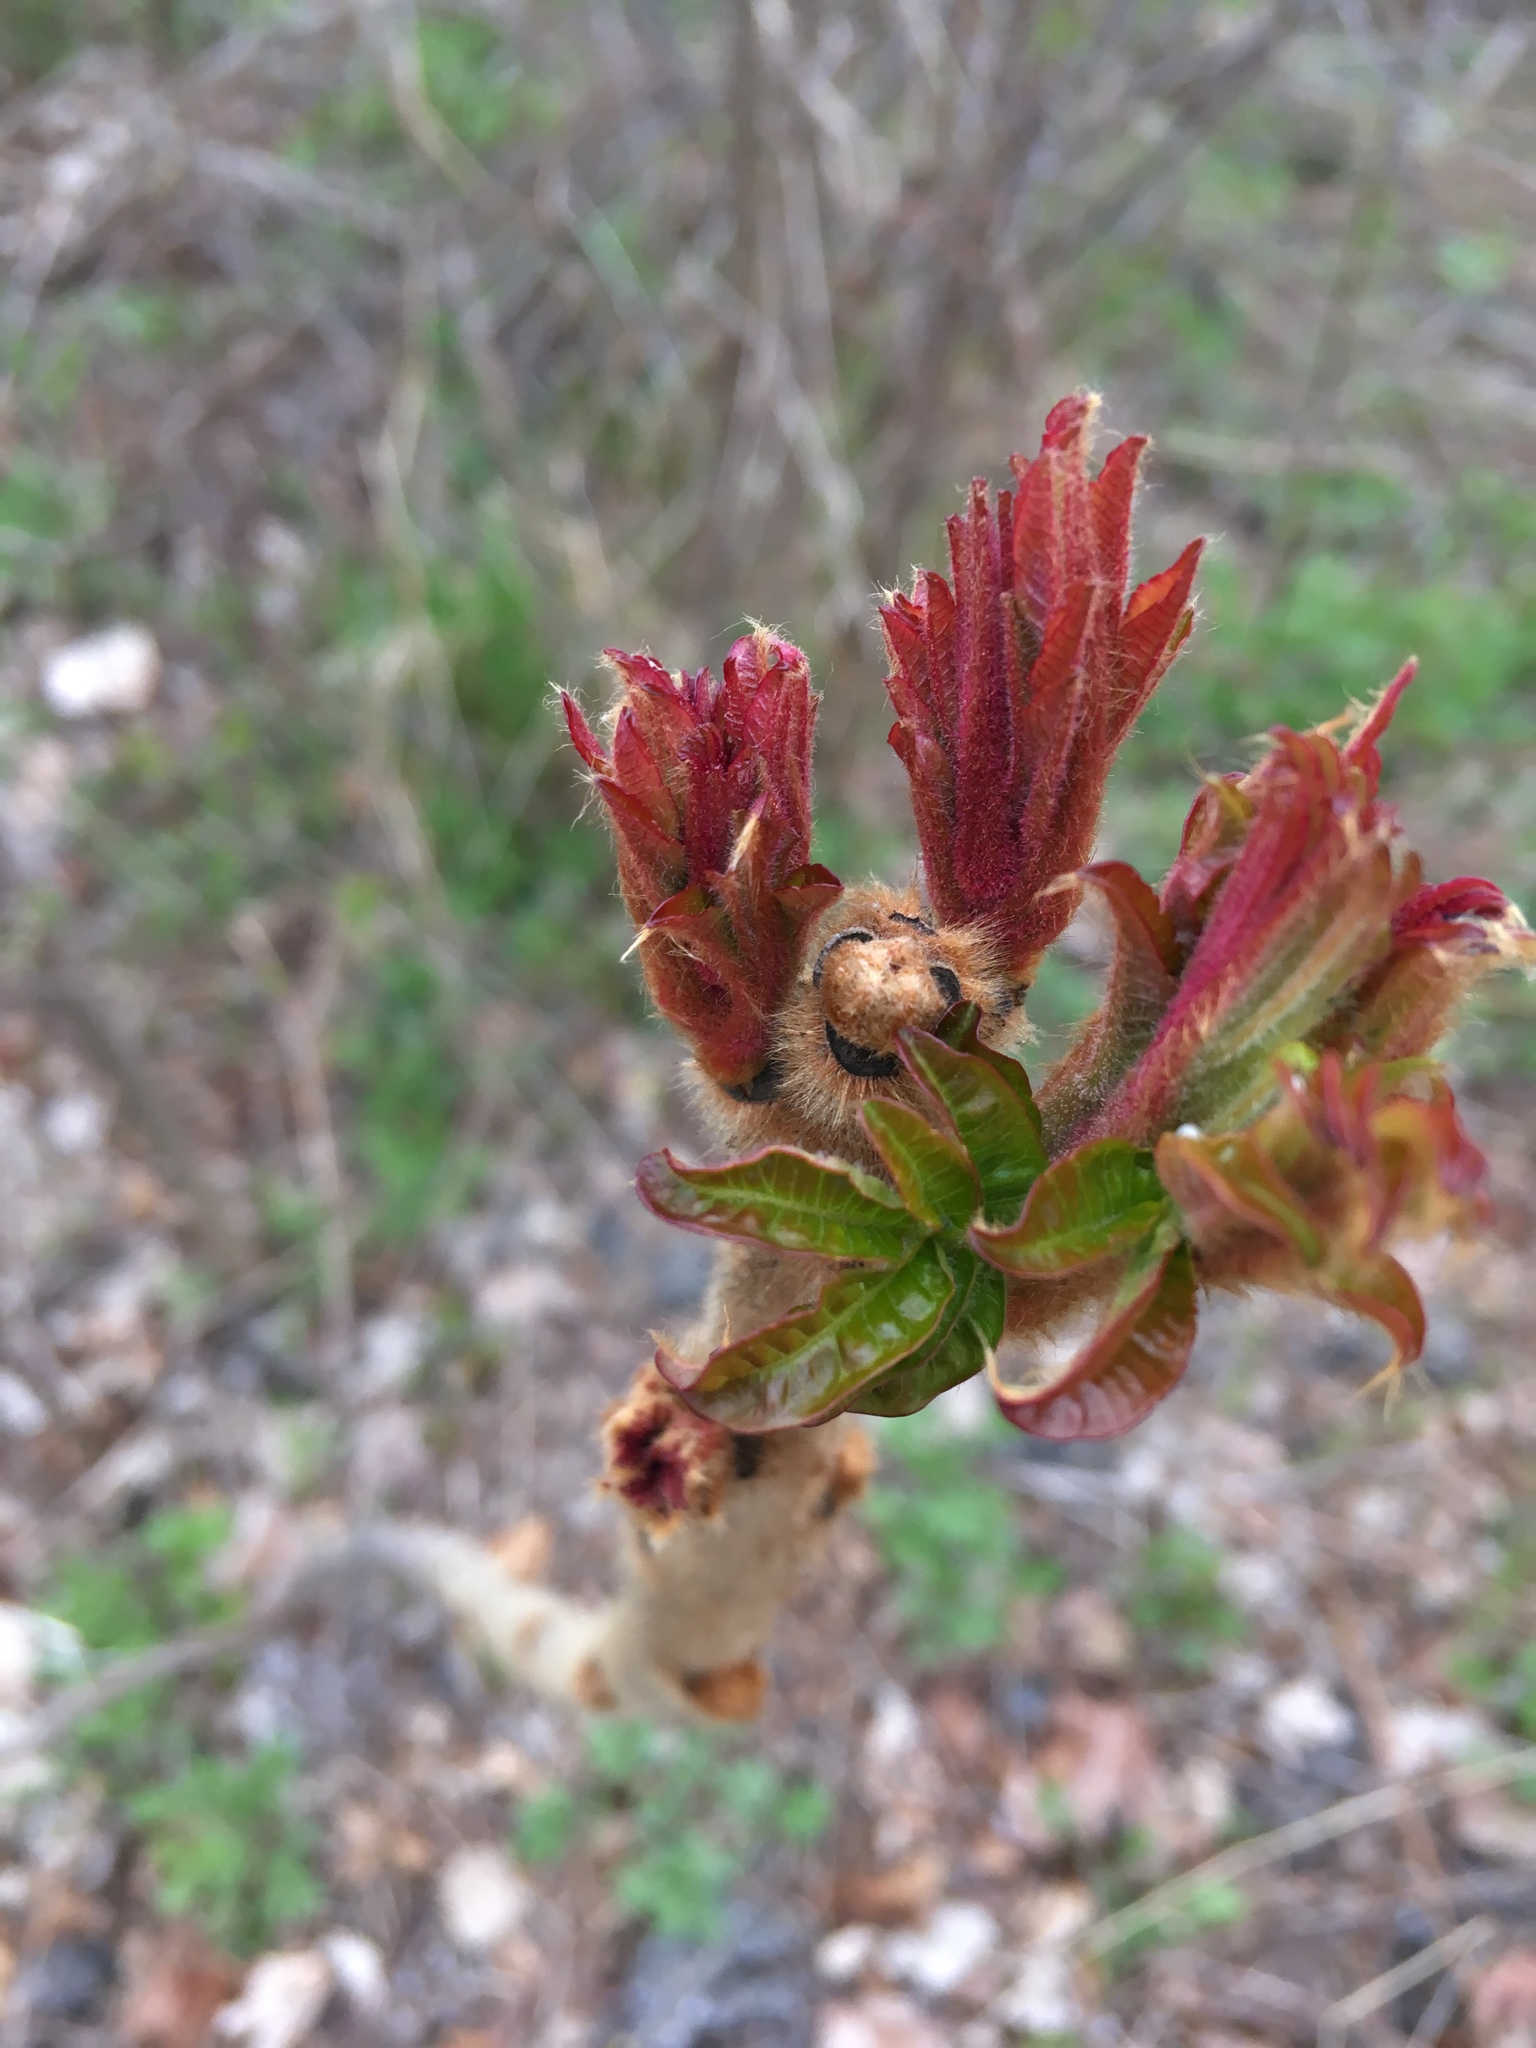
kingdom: Plantae
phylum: Tracheophyta
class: Magnoliopsida
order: Sapindales
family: Anacardiaceae
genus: Rhus
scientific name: Rhus typhina
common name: Staghorn sumac
